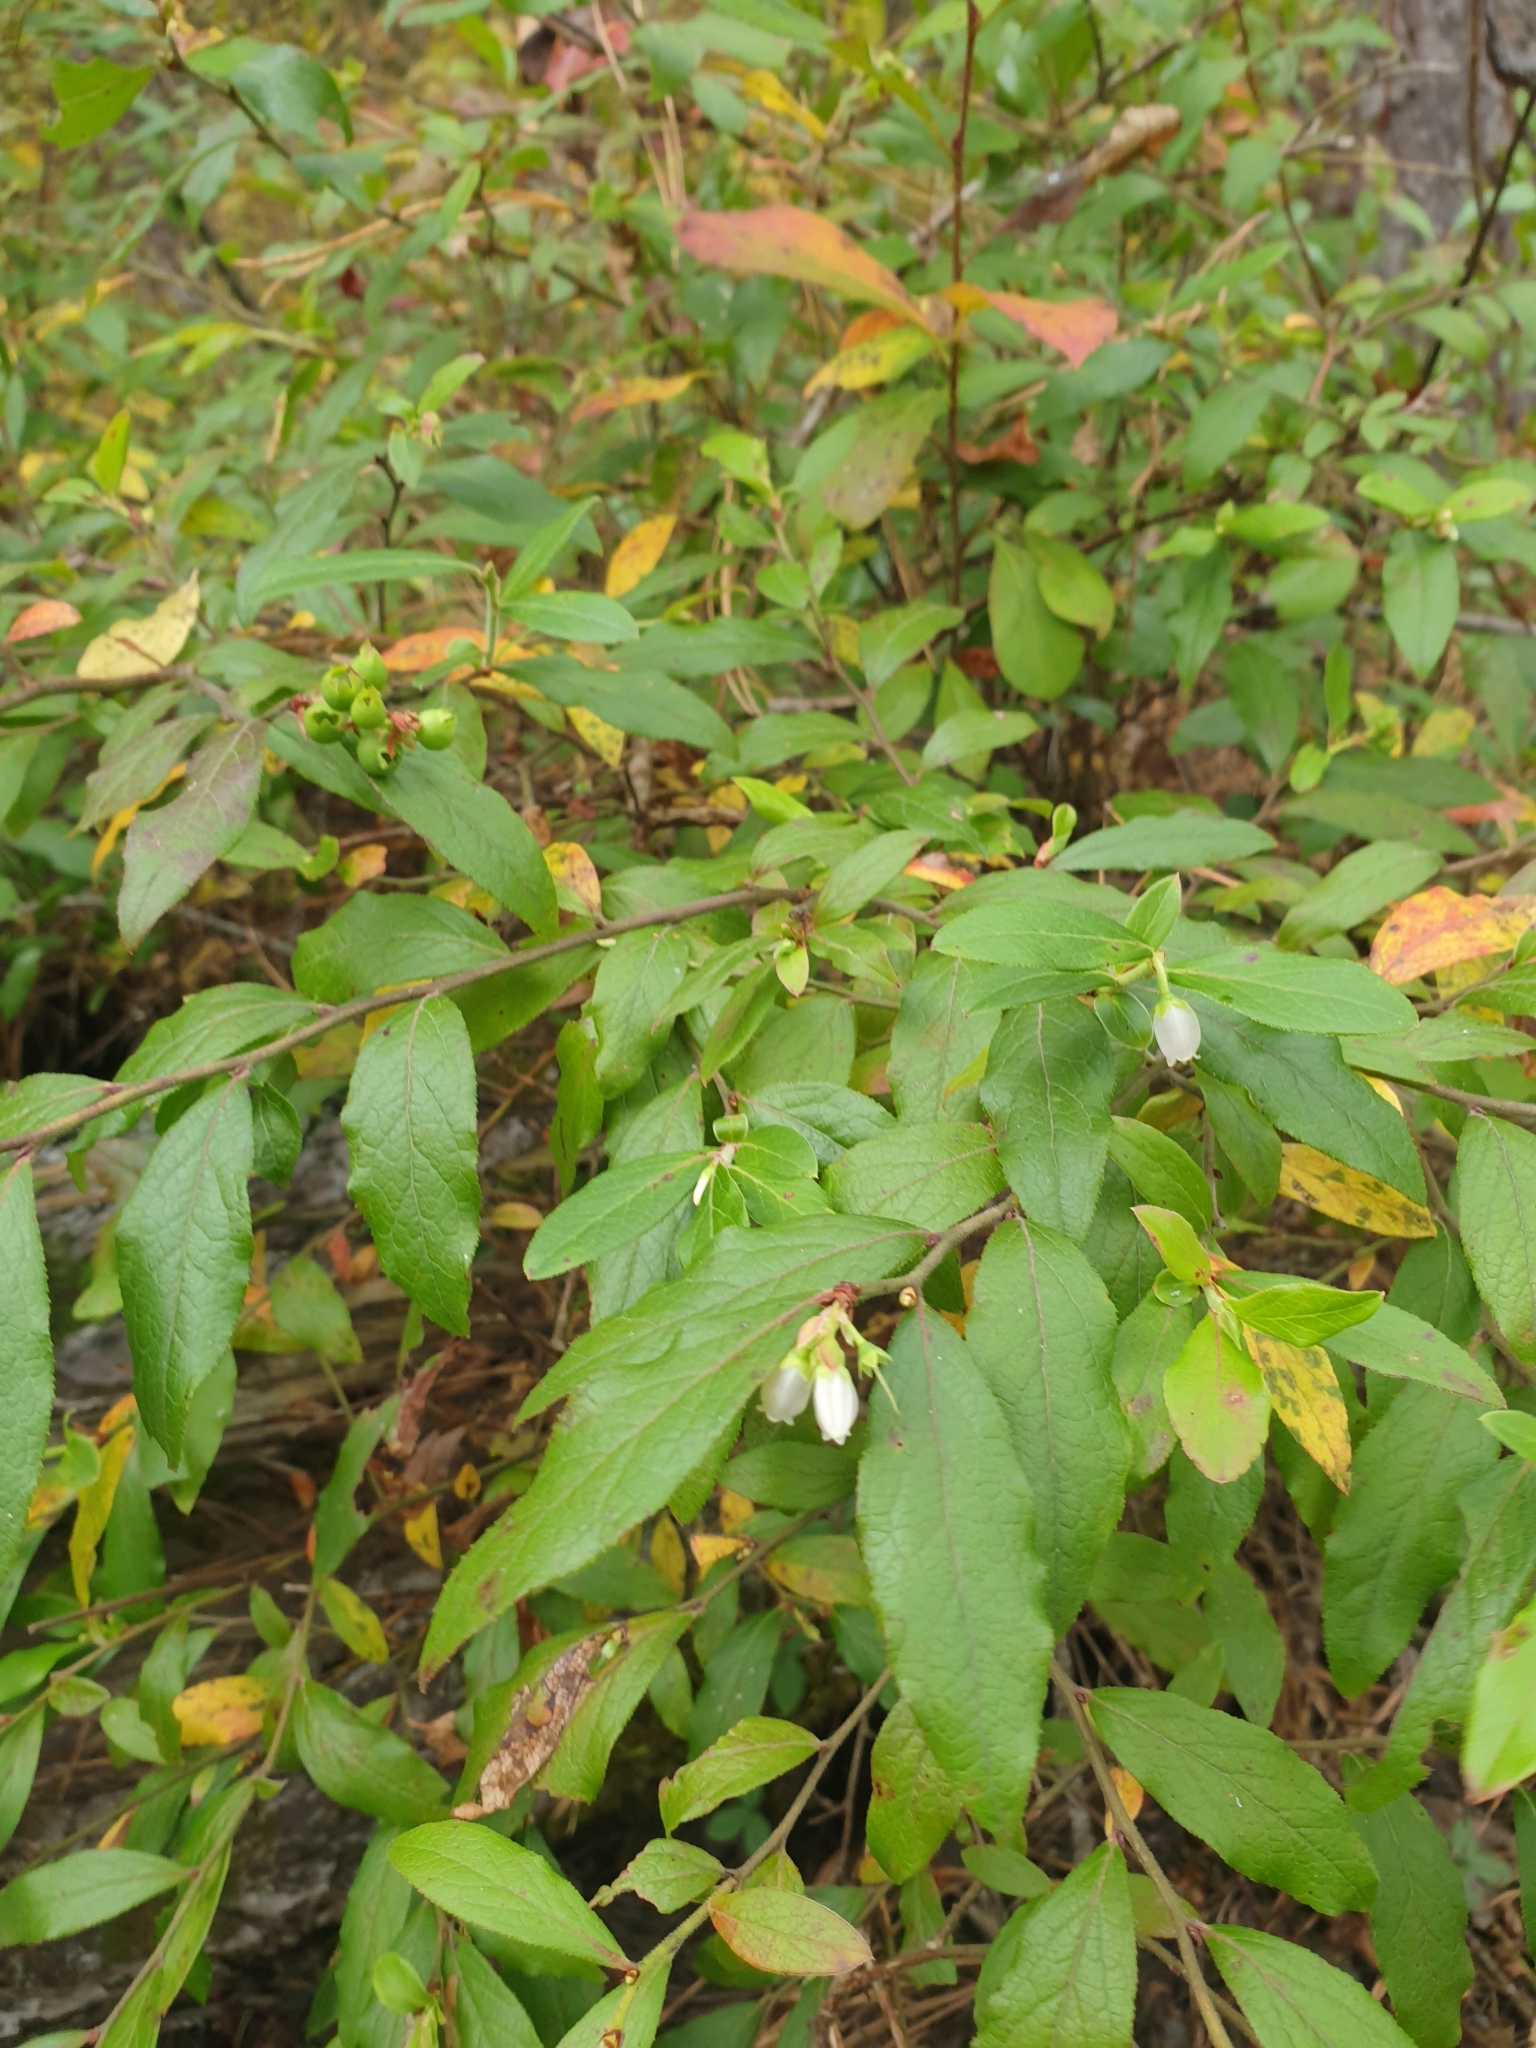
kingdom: Plantae
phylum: Tracheophyta
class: Magnoliopsida
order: Ericales
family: Ericaceae
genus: Vaccinium
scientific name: Vaccinium corymbosum
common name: Blueberry
